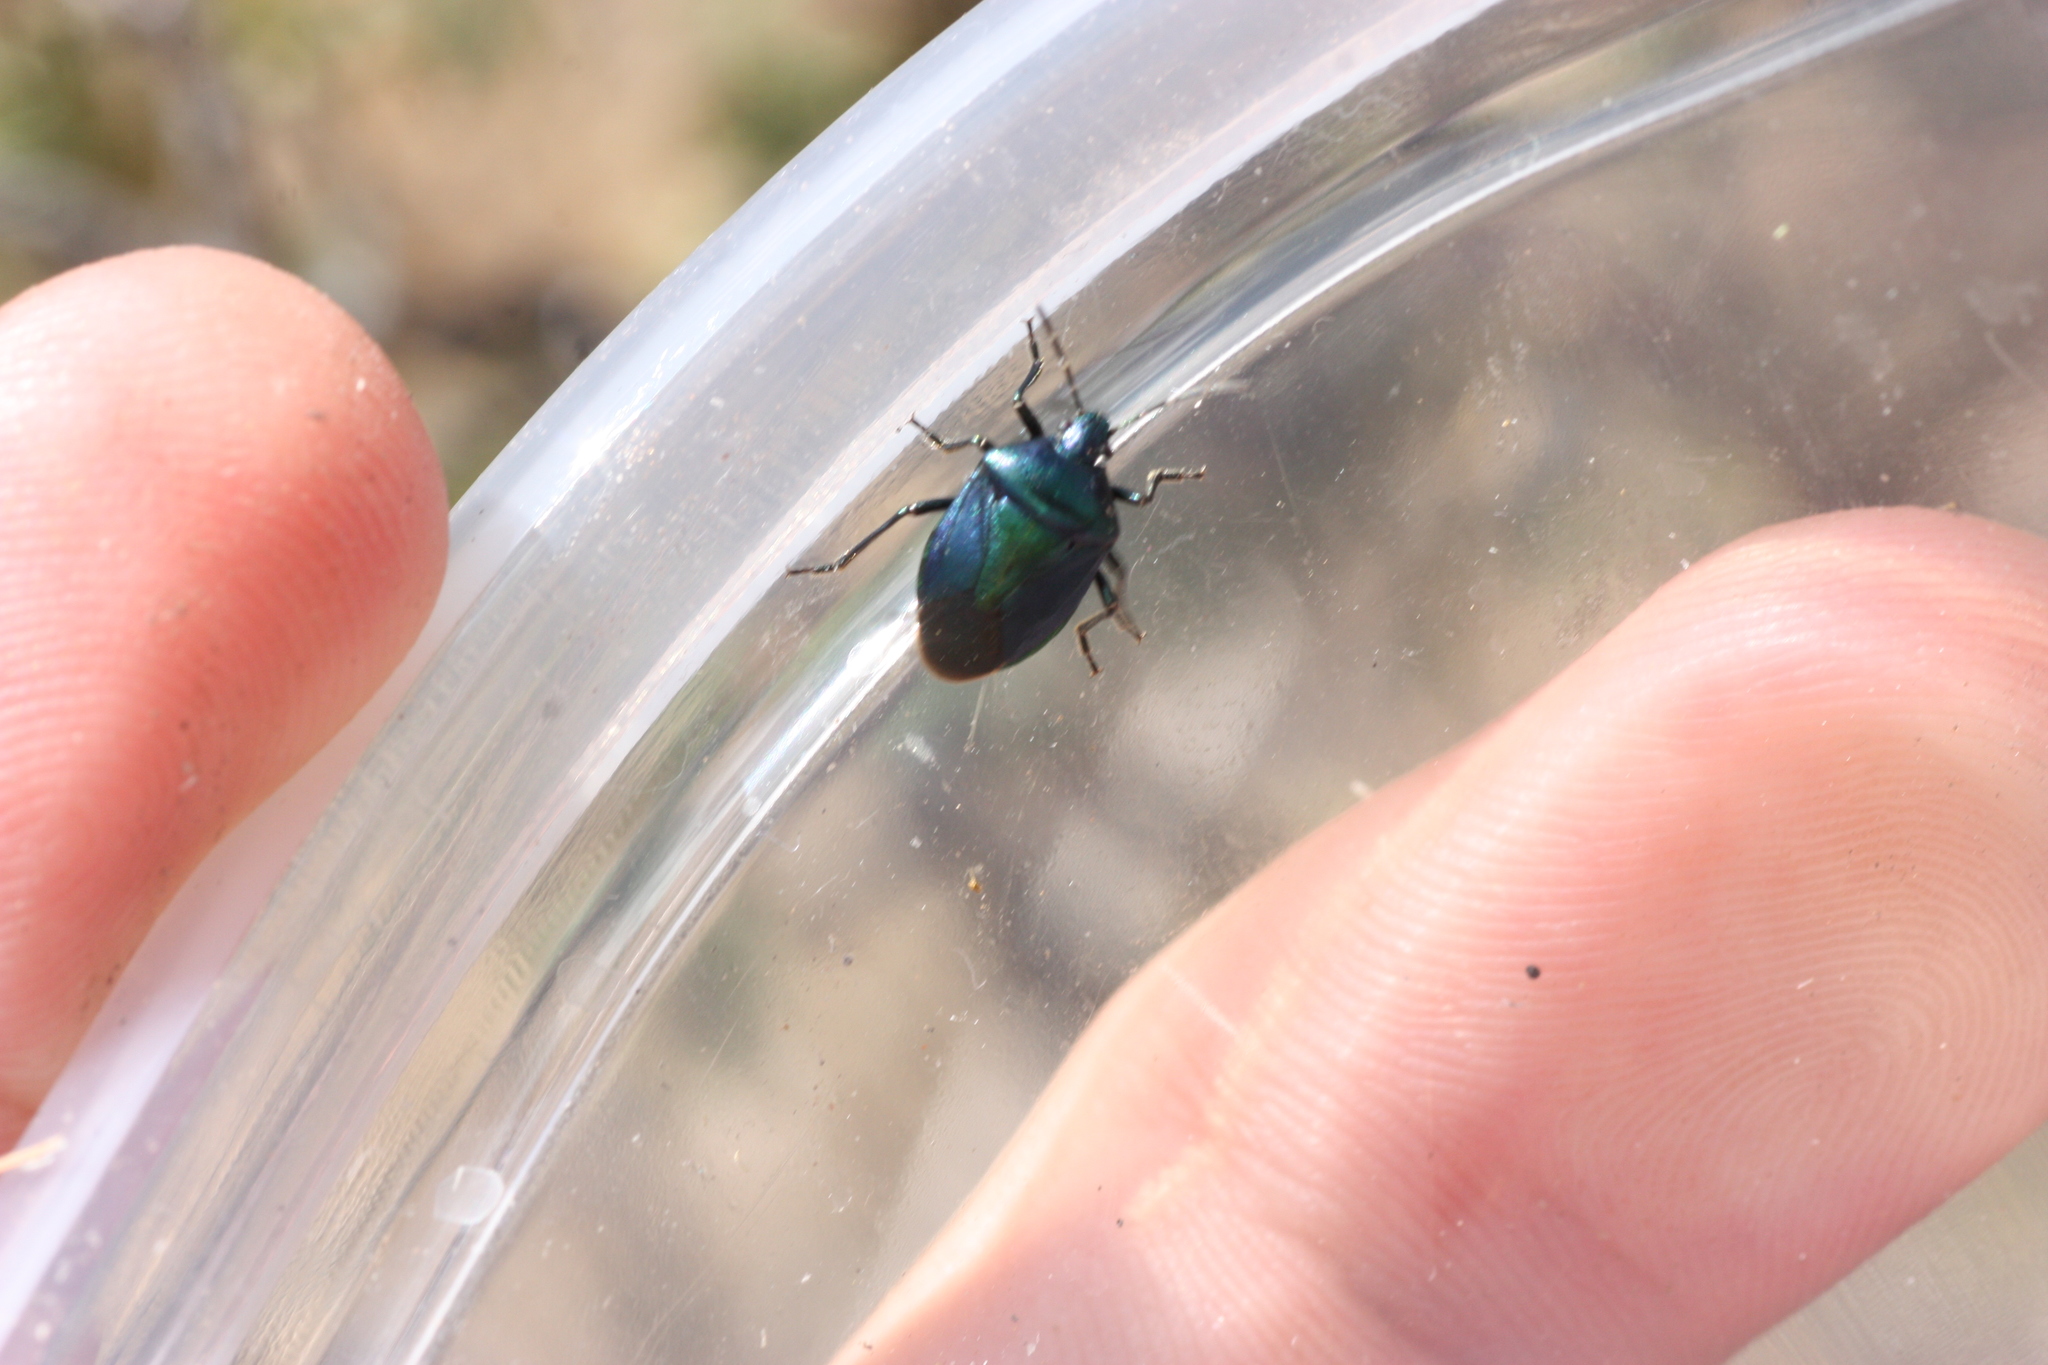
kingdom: Animalia
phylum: Arthropoda
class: Insecta
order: Hemiptera
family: Pentatomidae
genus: Zicrona
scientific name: Zicrona
